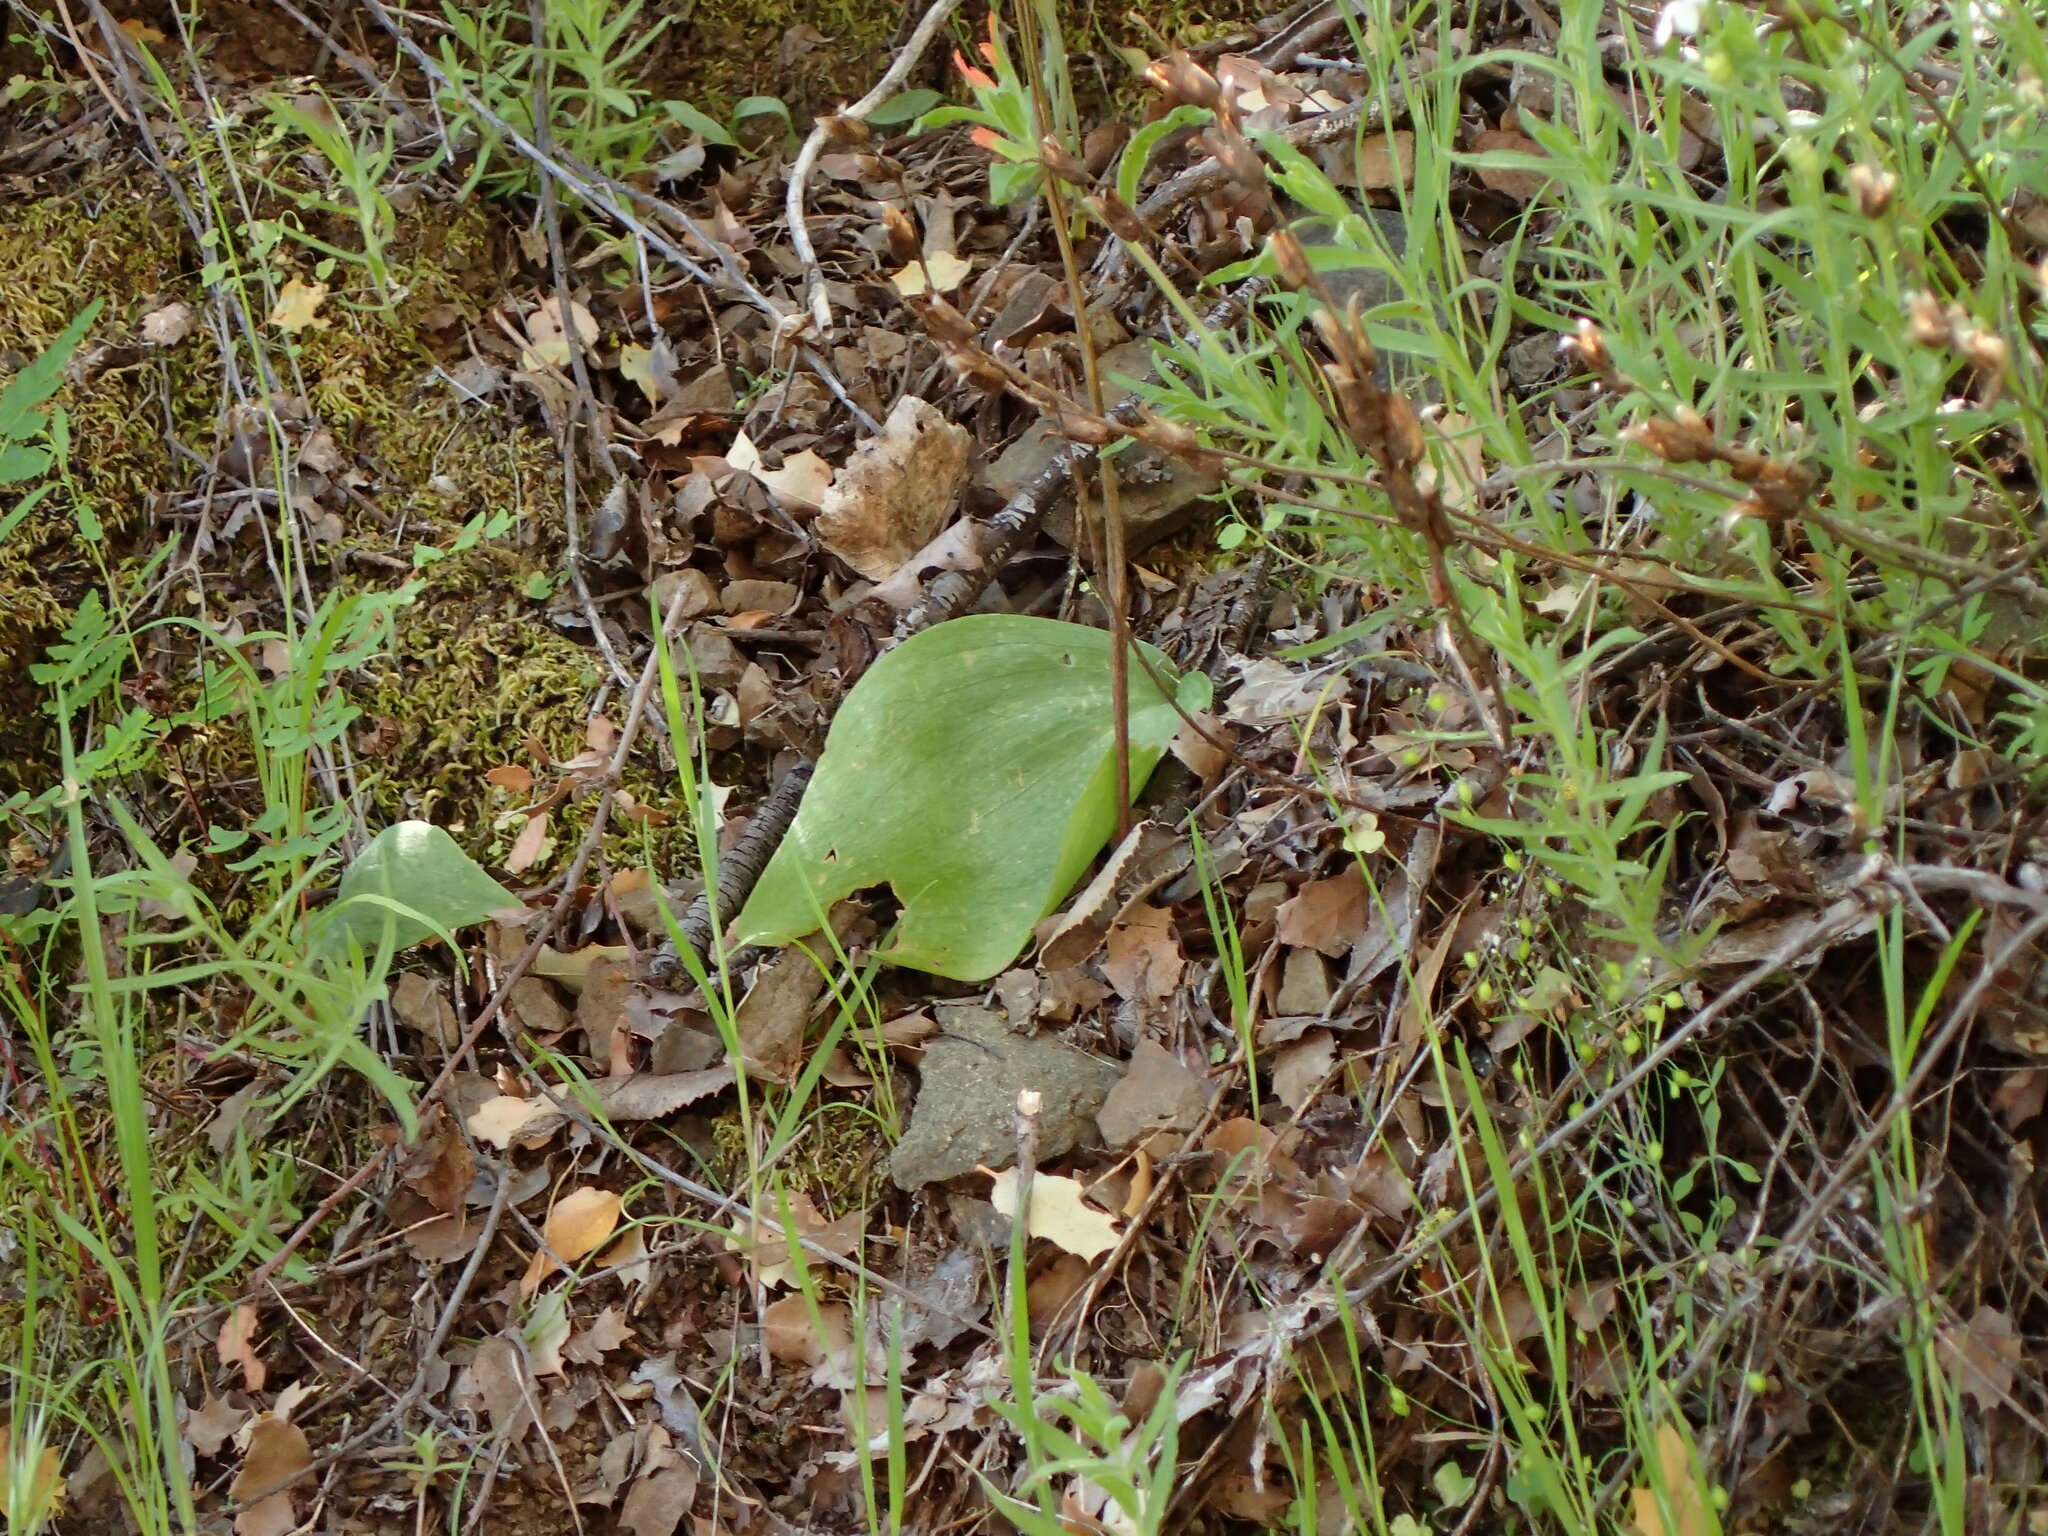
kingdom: Plantae
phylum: Tracheophyta
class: Liliopsida
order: Liliales
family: Liliaceae
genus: Fritillaria
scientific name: Fritillaria ojaiensis
